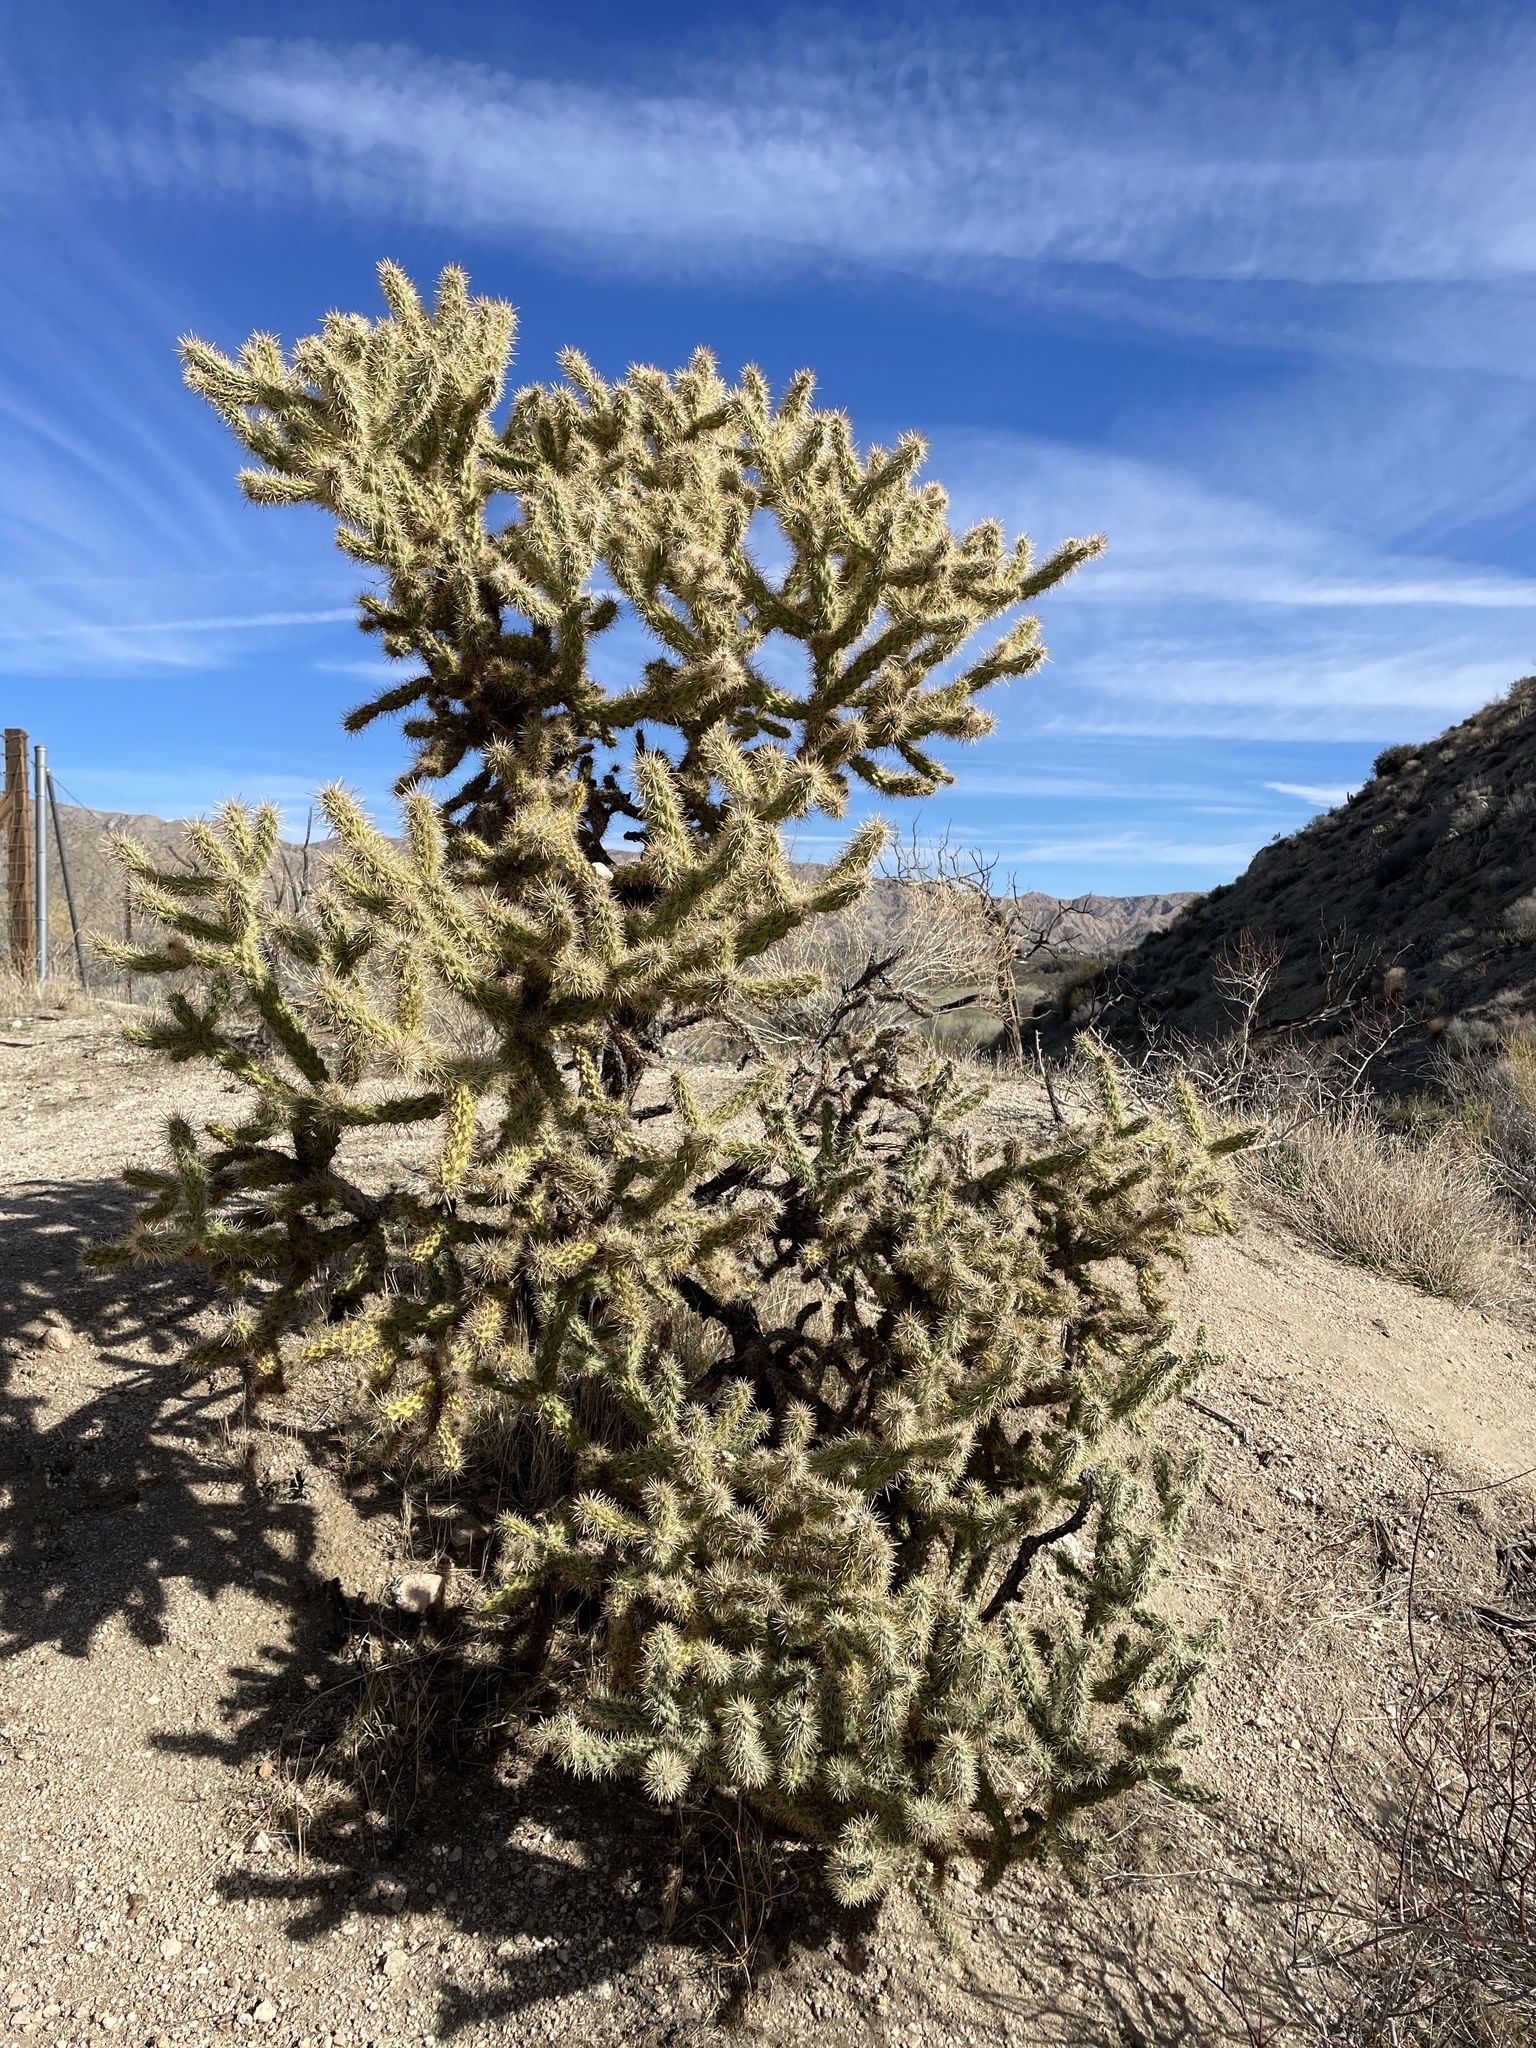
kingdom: Plantae
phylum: Tracheophyta
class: Magnoliopsida
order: Caryophyllales
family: Cactaceae
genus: Cylindropuntia
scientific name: Cylindropuntia echinocarpa
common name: Ground cholla
